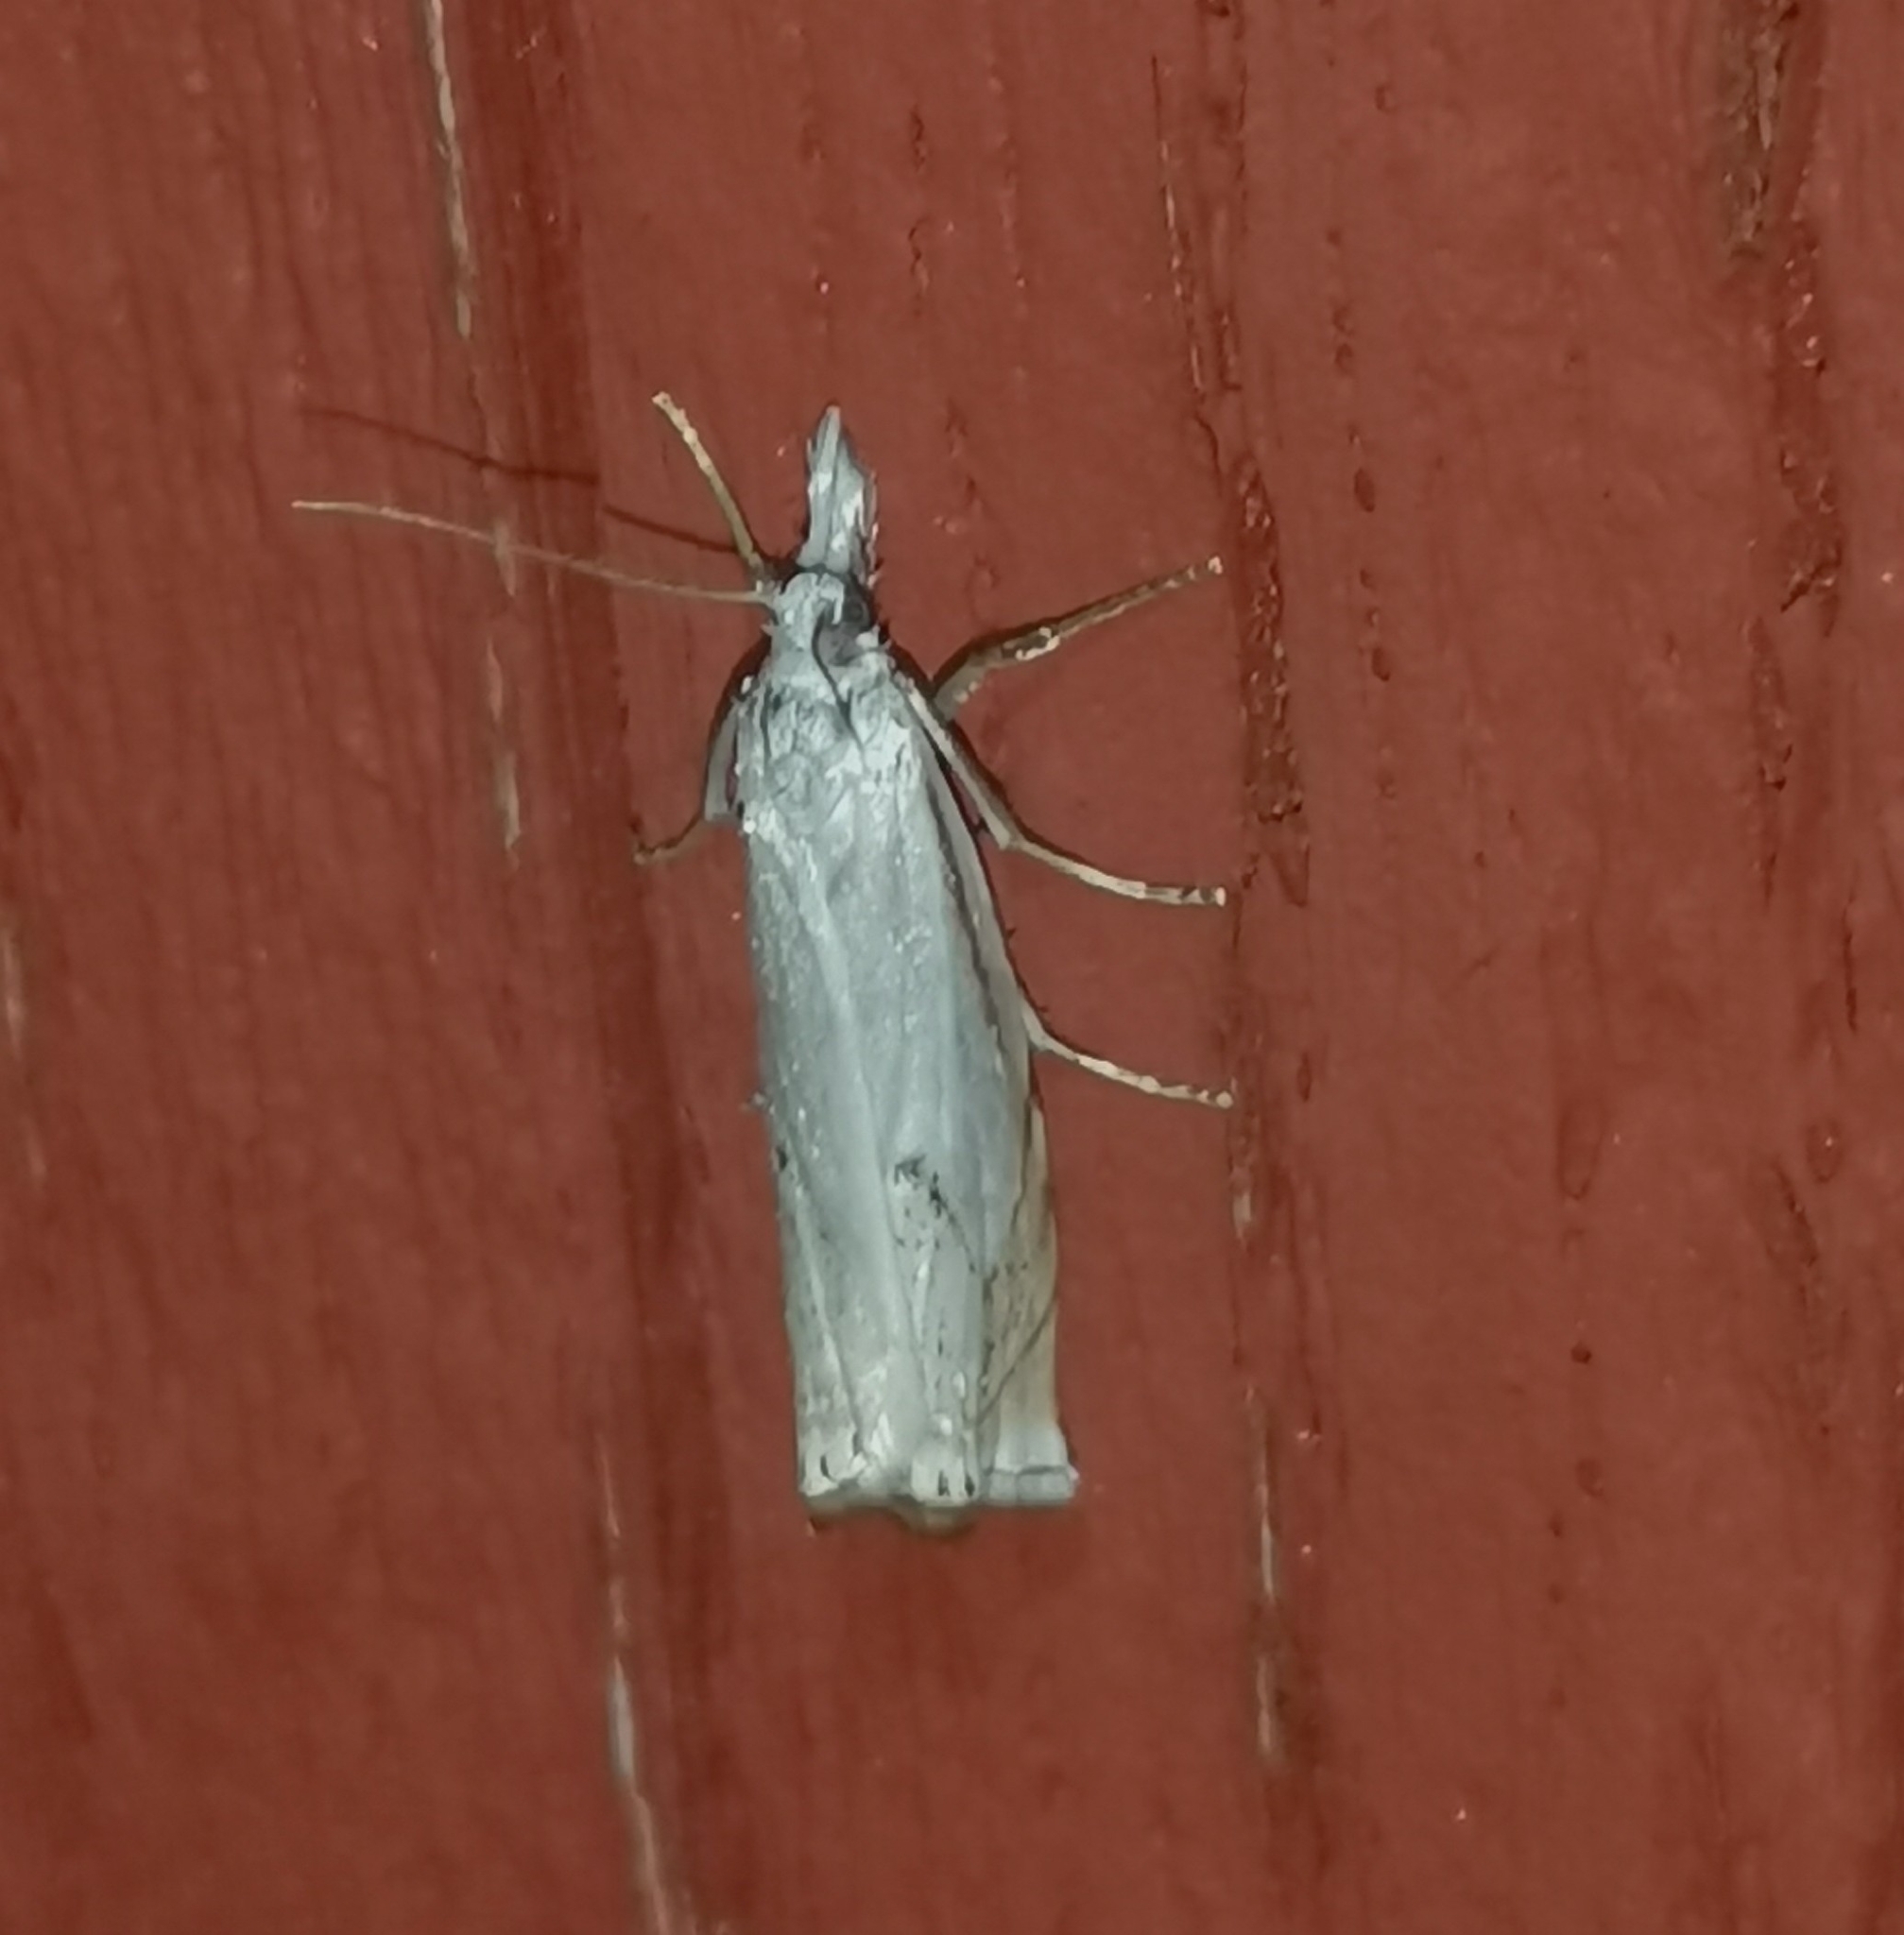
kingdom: Animalia
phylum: Arthropoda
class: Insecta
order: Lepidoptera
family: Crambidae
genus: Crambus
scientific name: Crambus nemorella
